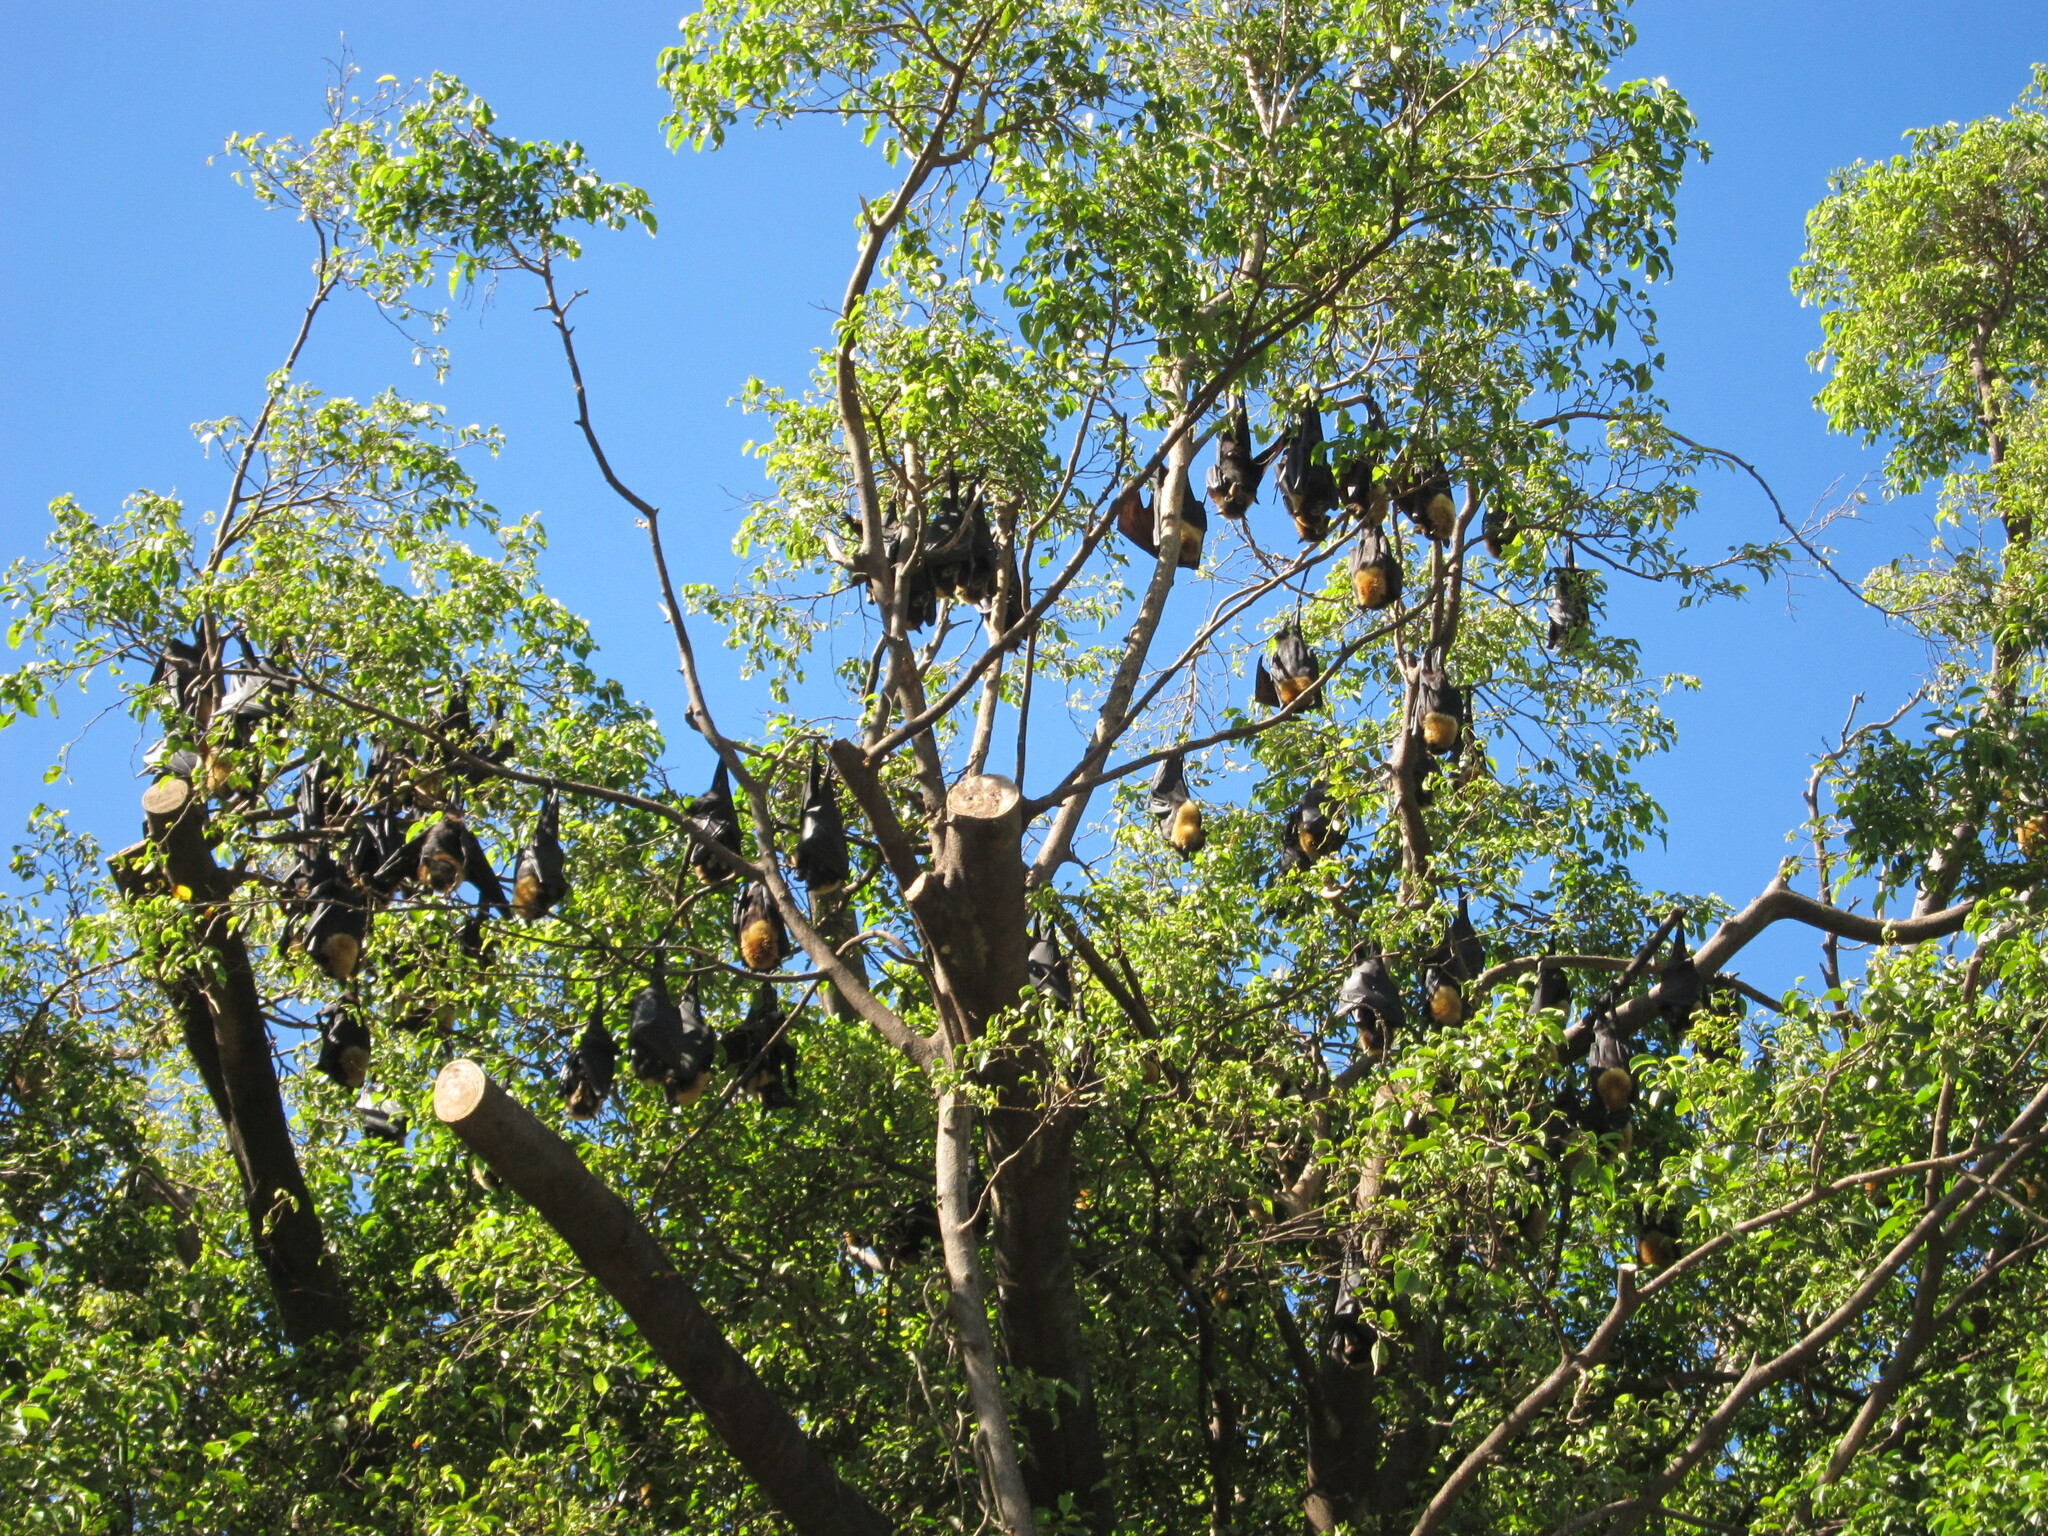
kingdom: Animalia
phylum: Chordata
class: Mammalia
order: Chiroptera
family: Pteropodidae
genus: Pteropus
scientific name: Pteropus conspicillatus
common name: Spectacled flying fox
